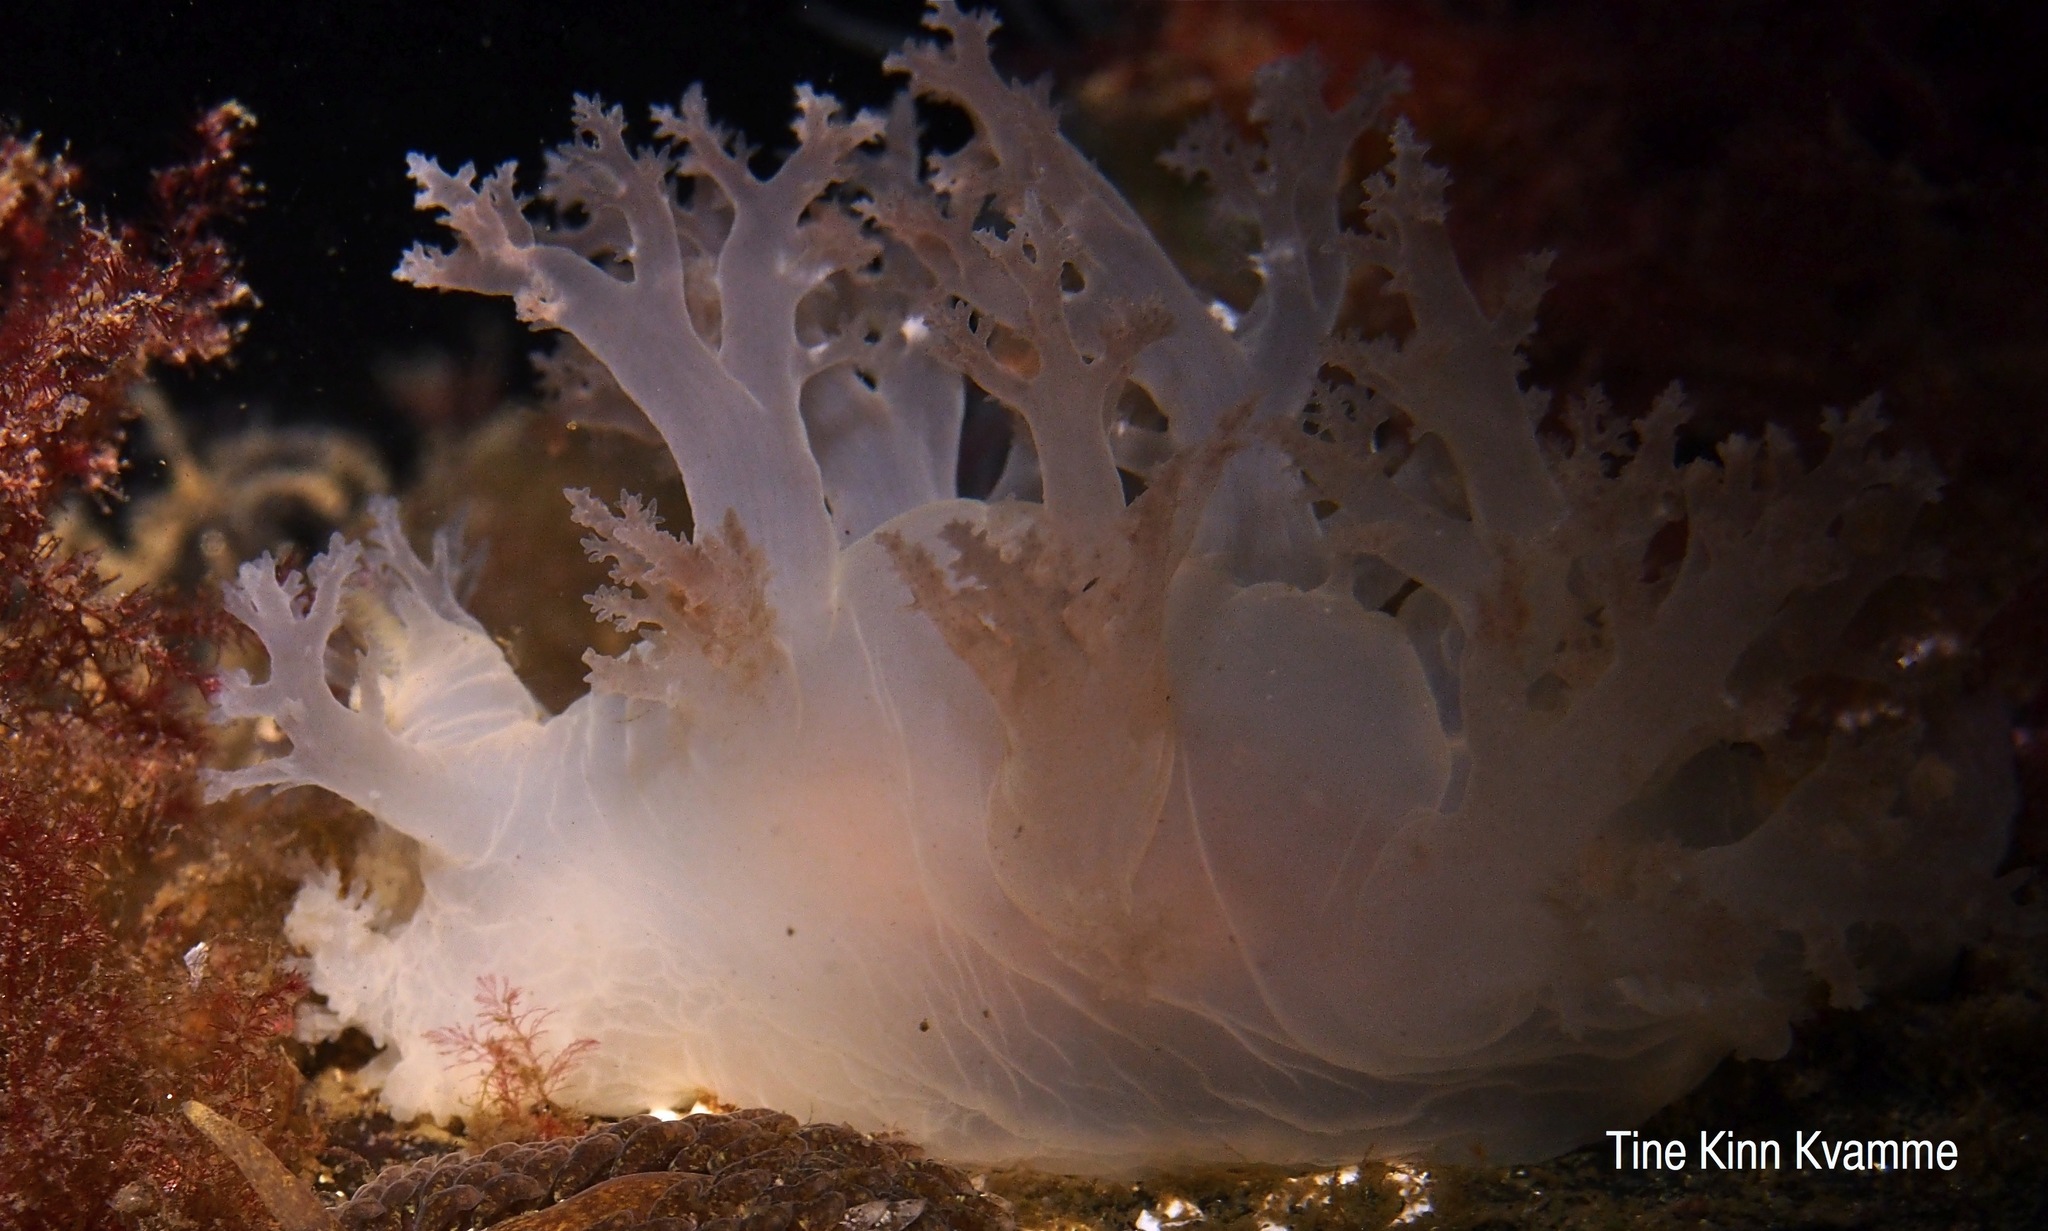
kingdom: Animalia
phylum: Mollusca
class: Gastropoda
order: Nudibranchia
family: Dendronotidae
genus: Dendronotus
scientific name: Dendronotus lacteus
